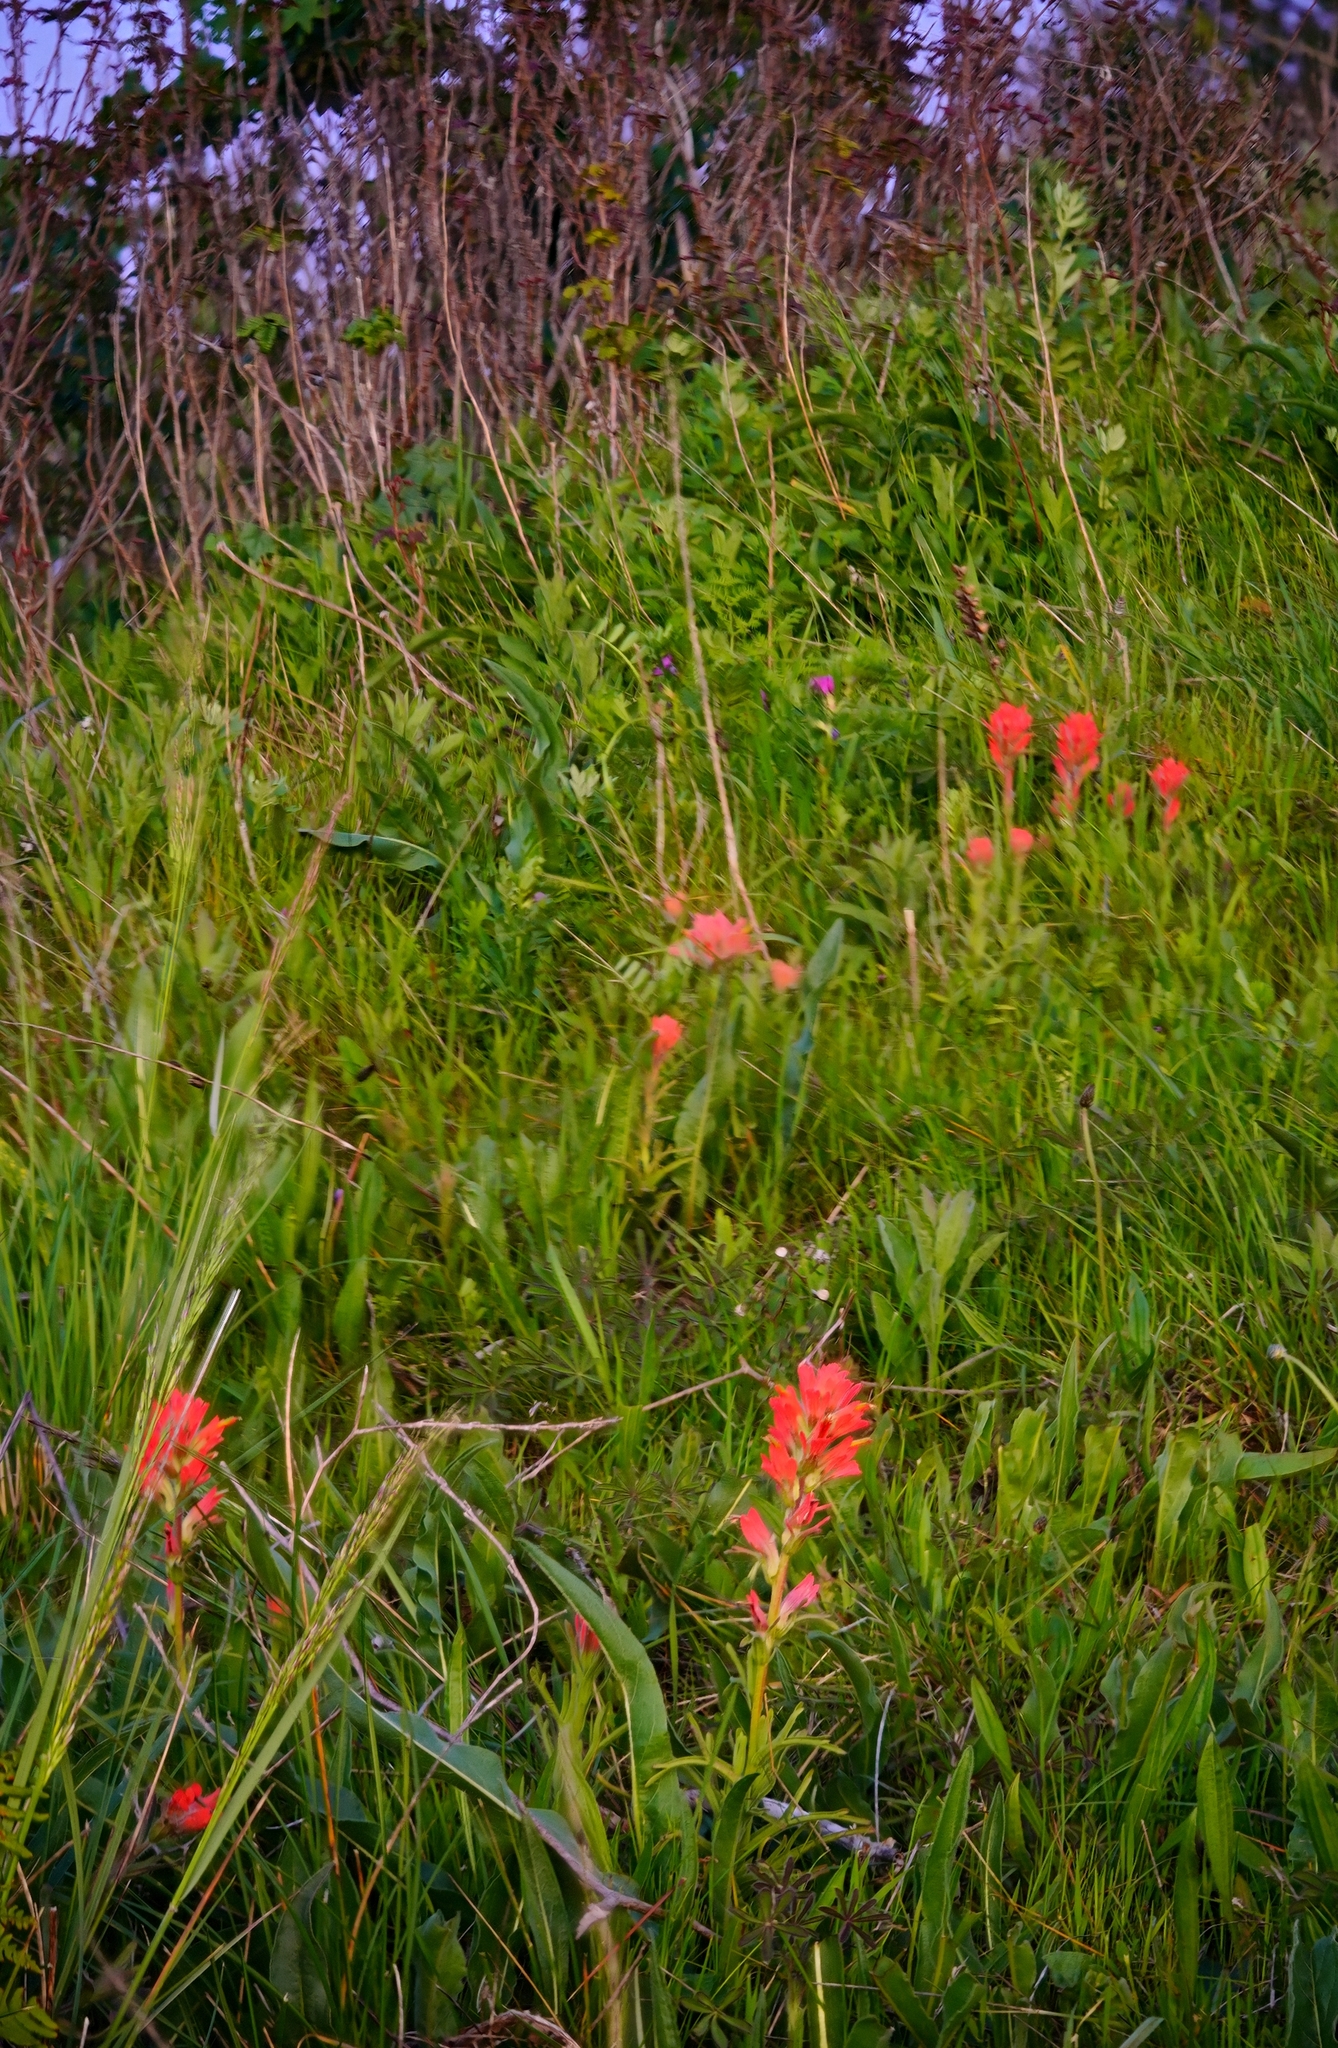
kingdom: Plantae
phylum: Tracheophyta
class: Magnoliopsida
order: Lamiales
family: Orobanchaceae
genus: Castilleja
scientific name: Castilleja affinis
